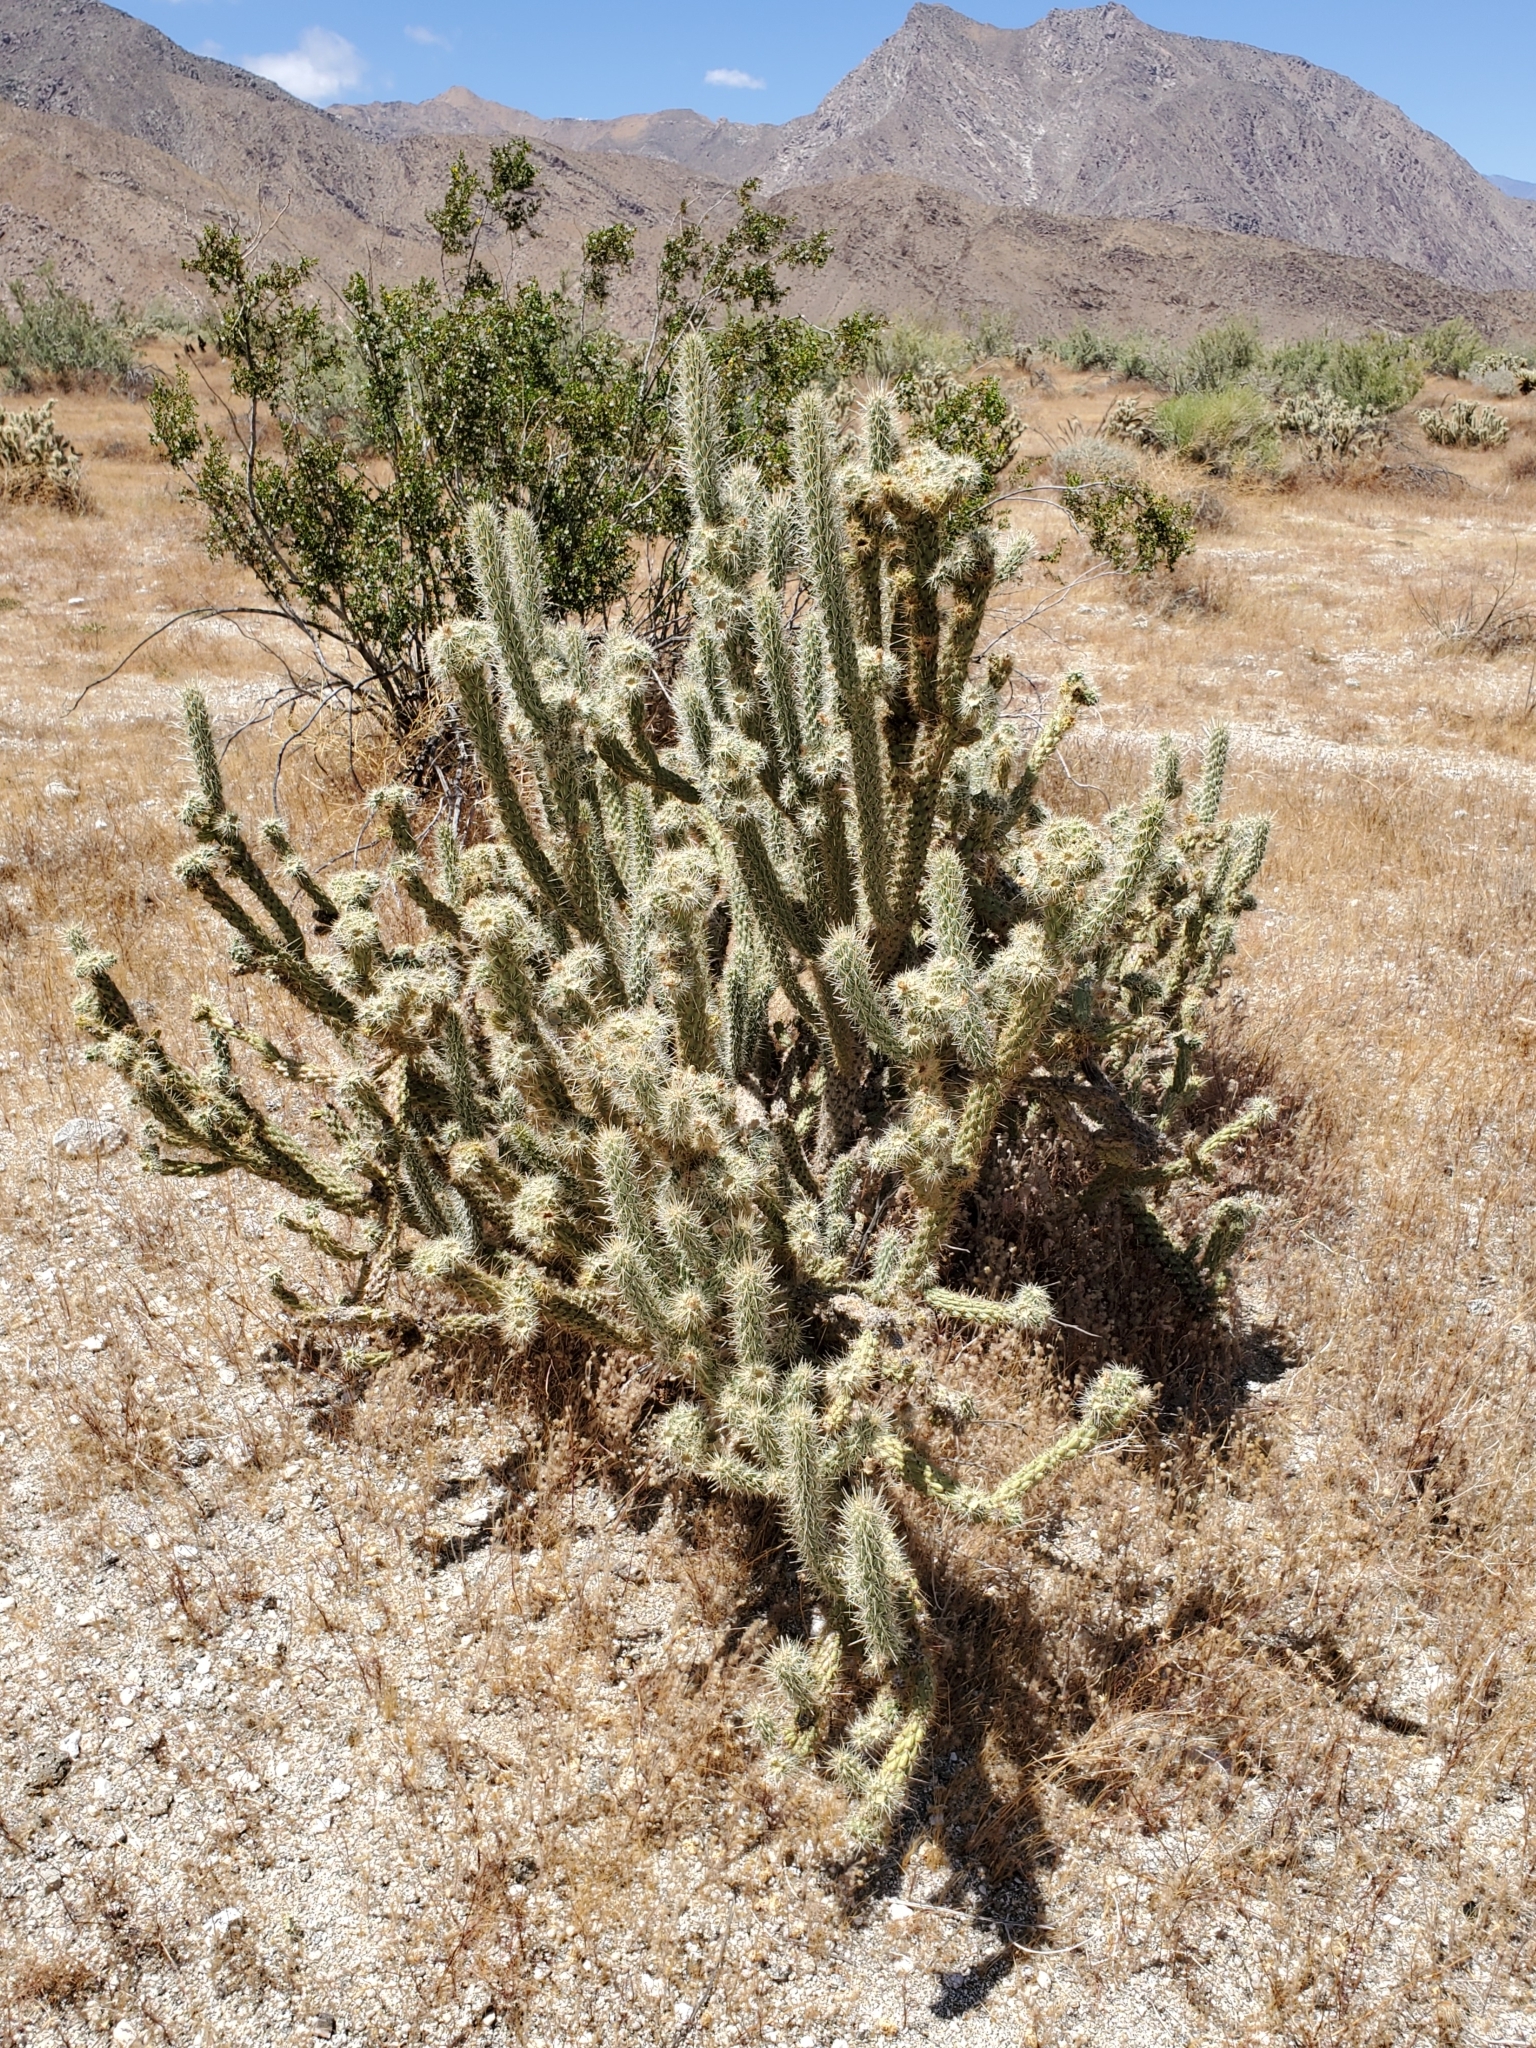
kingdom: Plantae
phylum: Tracheophyta
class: Magnoliopsida
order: Caryophyllales
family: Cactaceae
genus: Cylindropuntia
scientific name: Cylindropuntia ganderi
